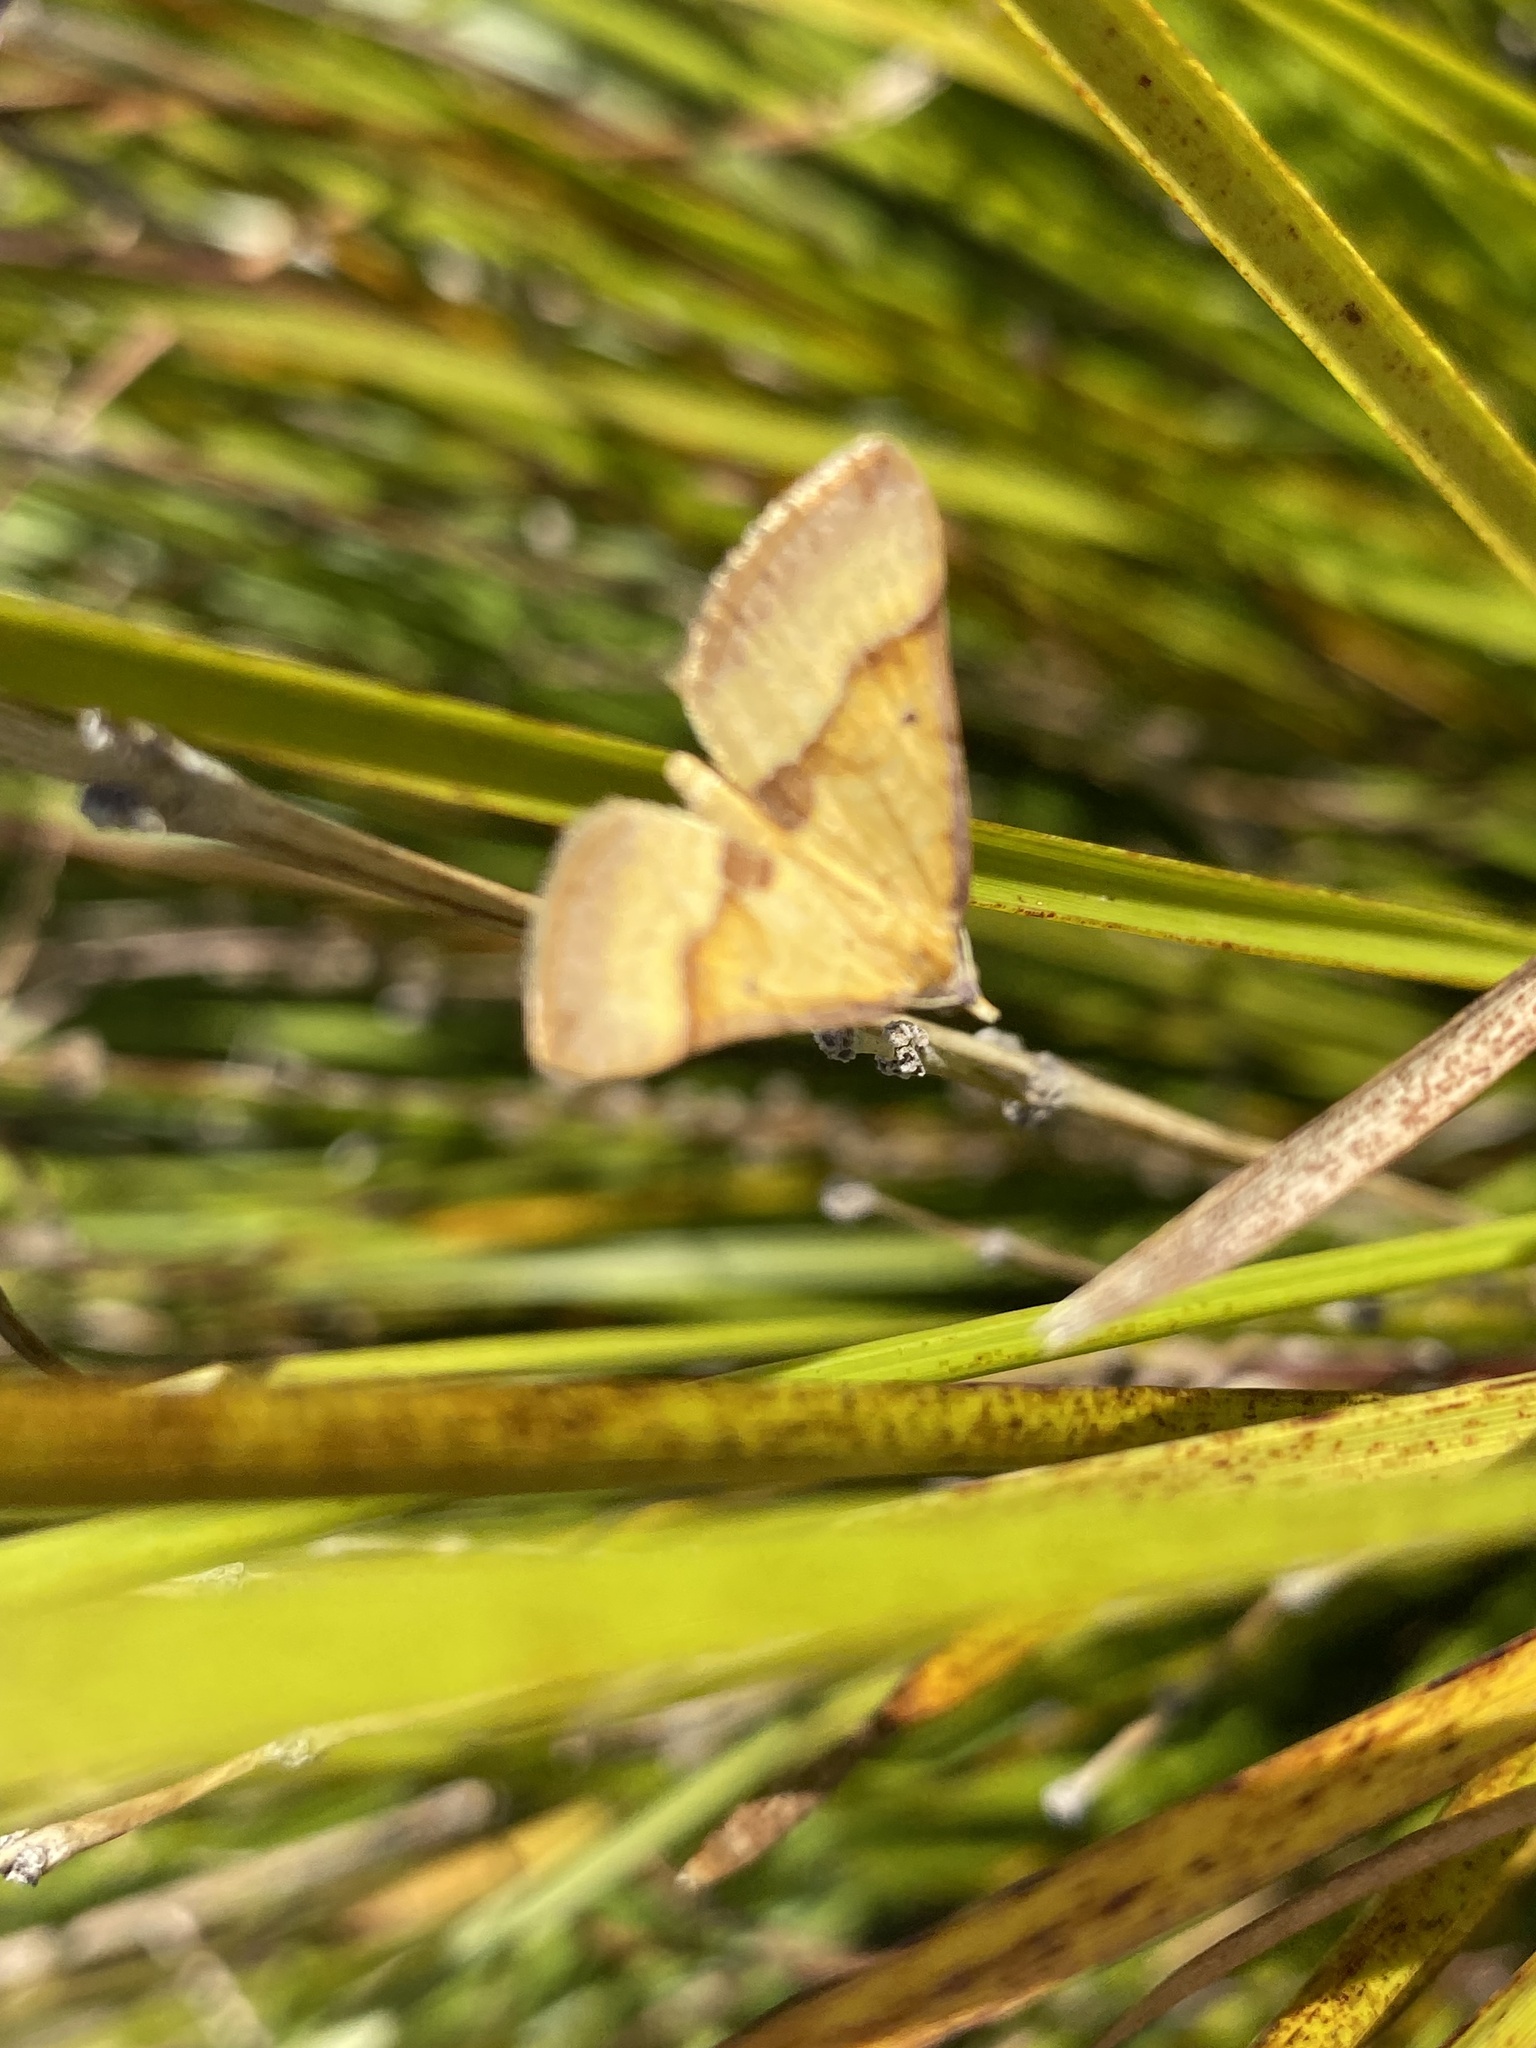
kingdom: Animalia
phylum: Arthropoda
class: Insecta
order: Lepidoptera
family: Geometridae
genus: Anachloris
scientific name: Anachloris subochraria
